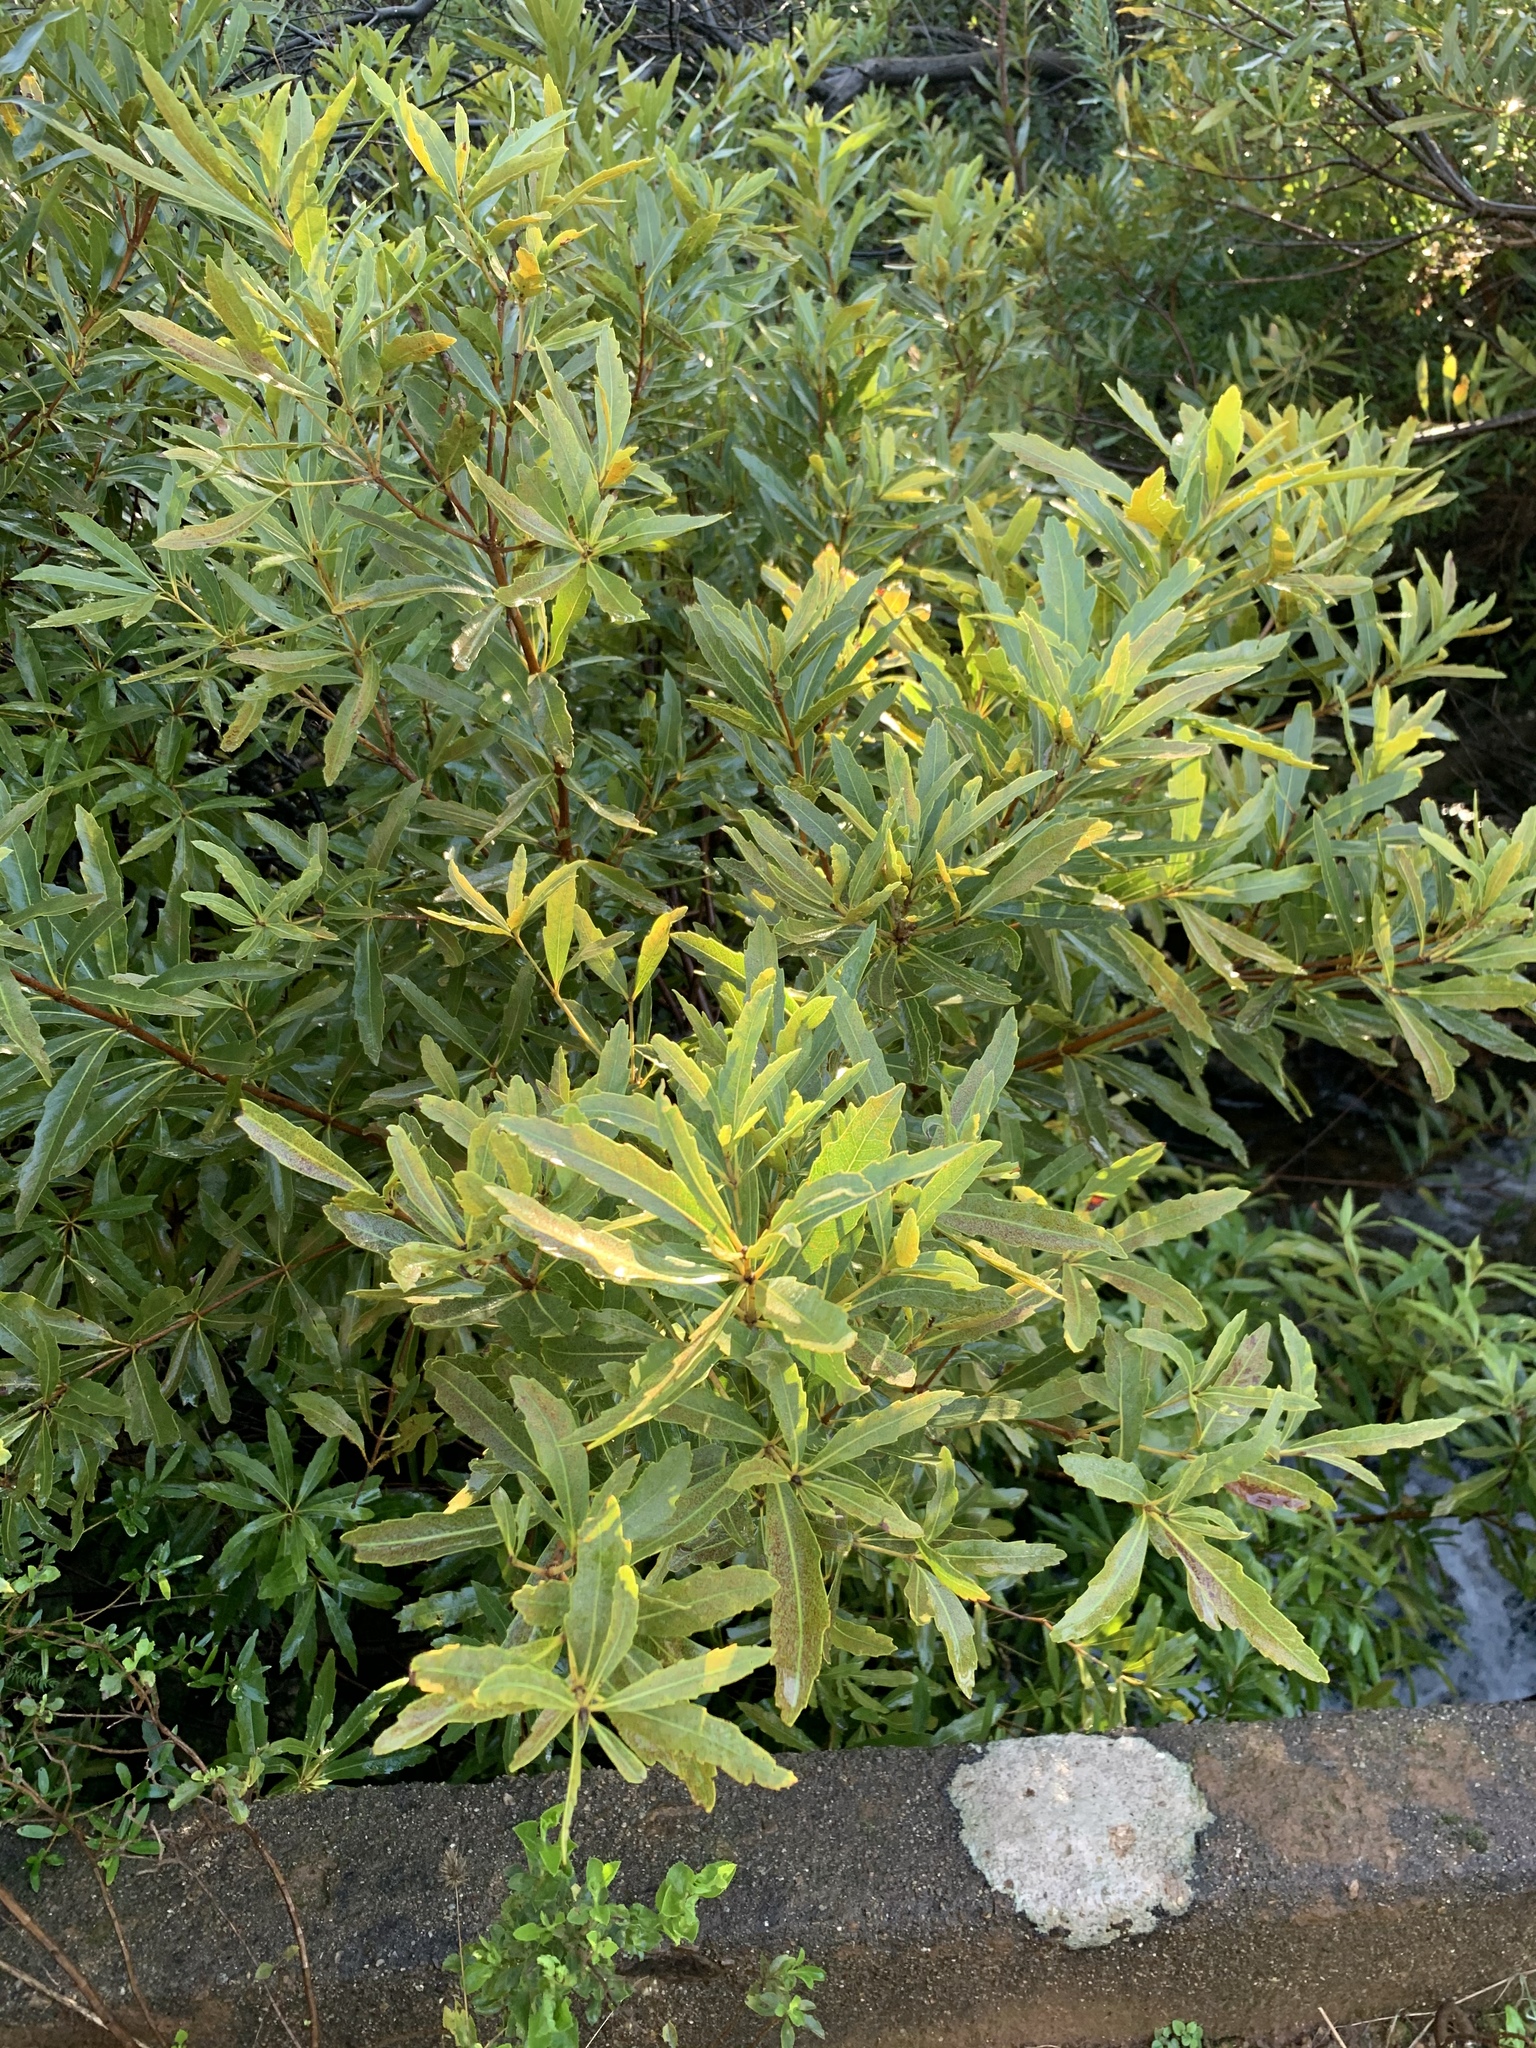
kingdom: Plantae
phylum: Tracheophyta
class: Magnoliopsida
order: Proteales
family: Proteaceae
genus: Brabejum
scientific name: Brabejum stellatifolium
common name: Wild almond
